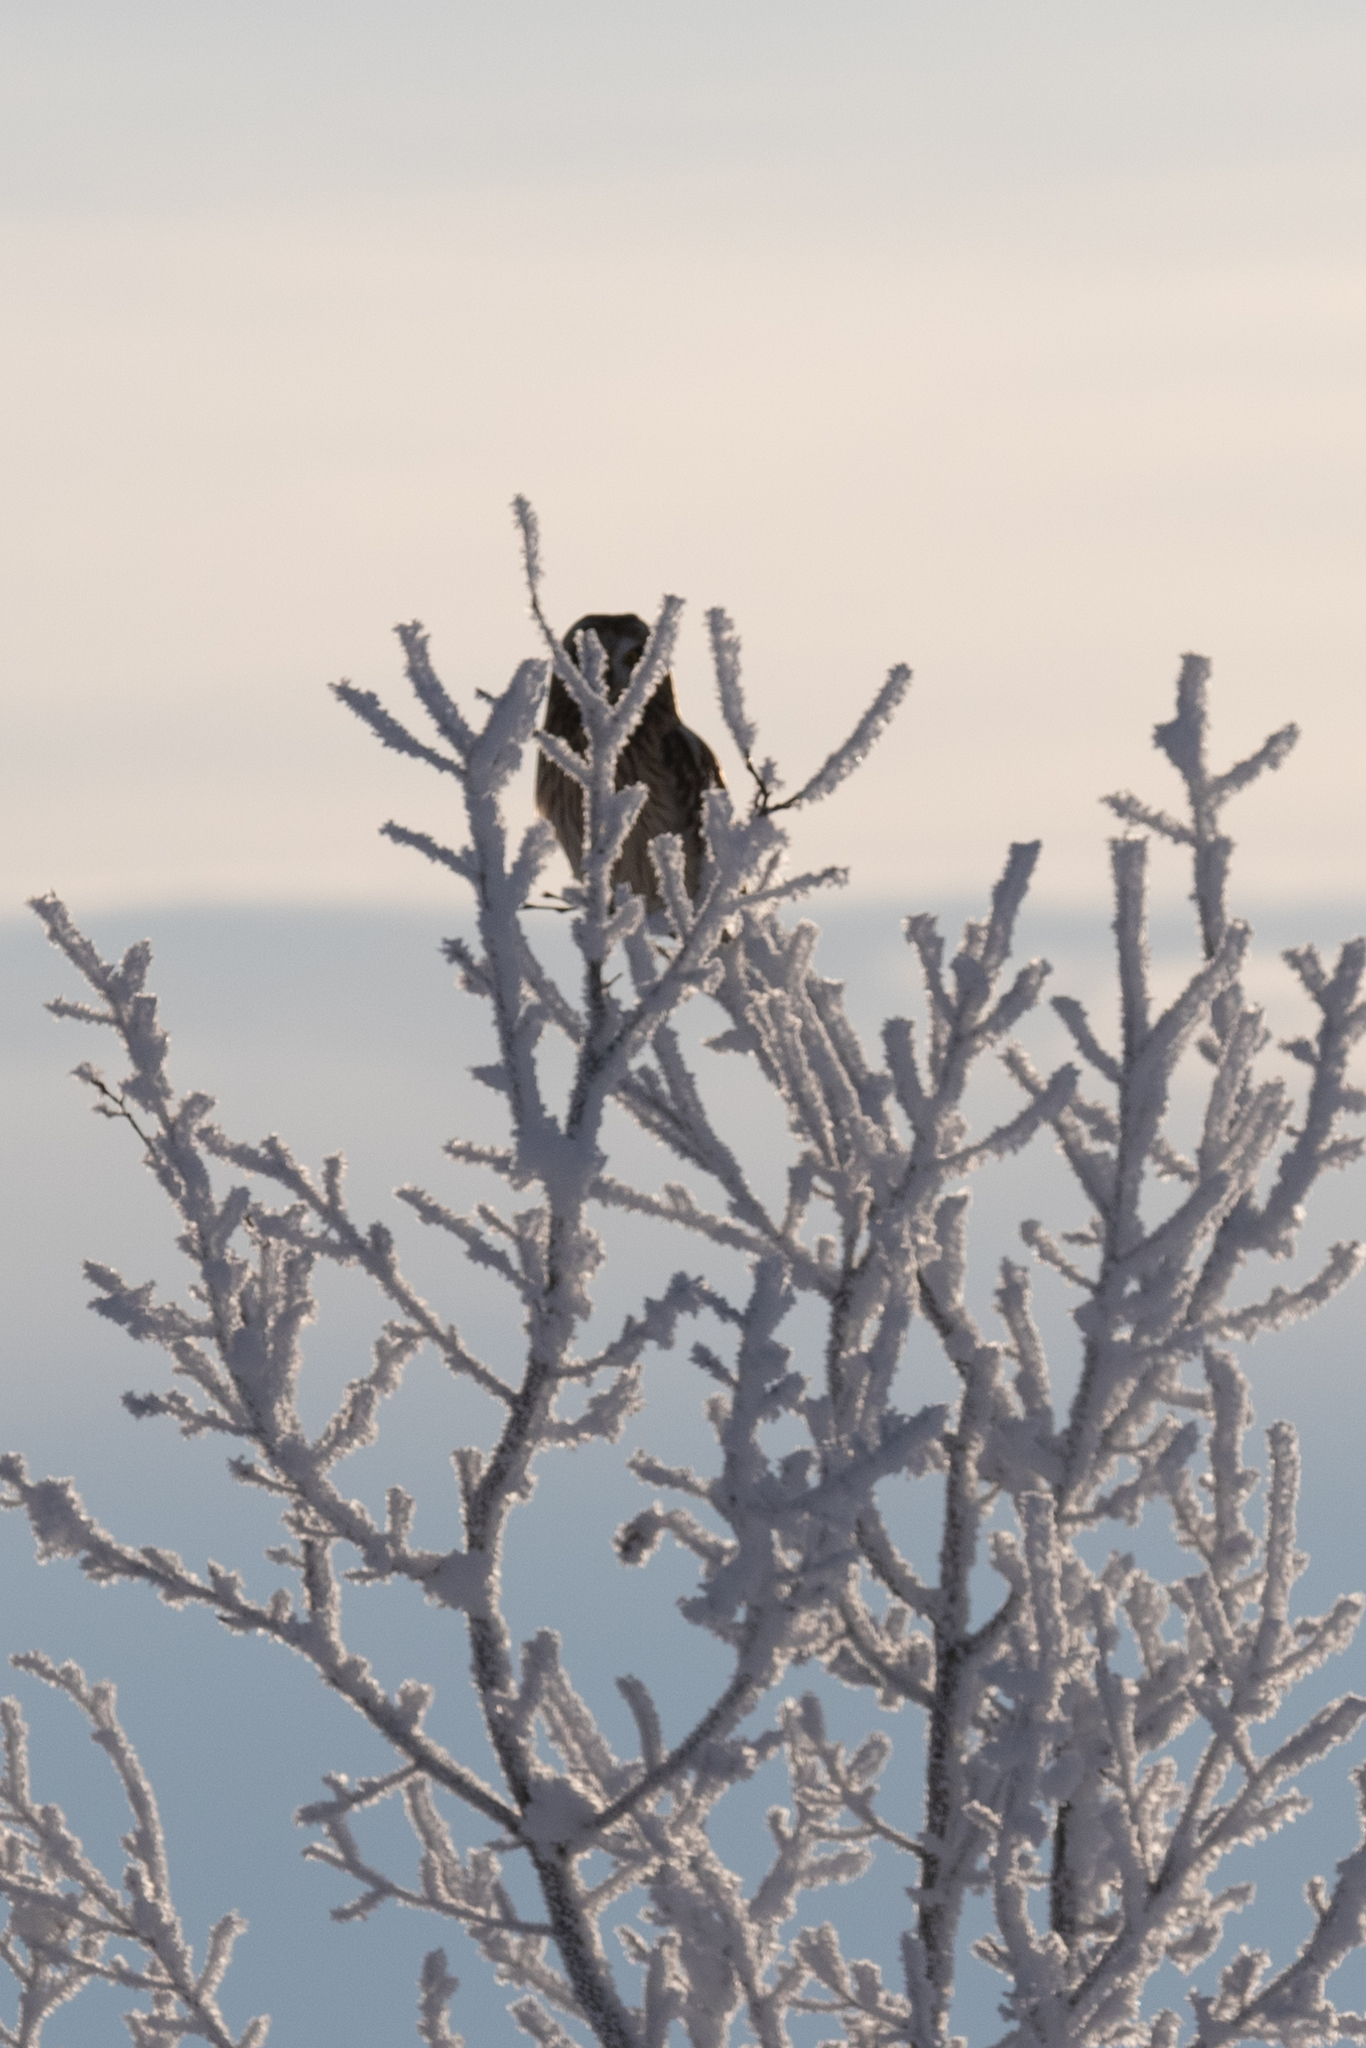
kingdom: Animalia
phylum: Chordata
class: Aves
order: Strigiformes
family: Strigidae
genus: Asio
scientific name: Asio flammeus
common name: Short-eared owl
